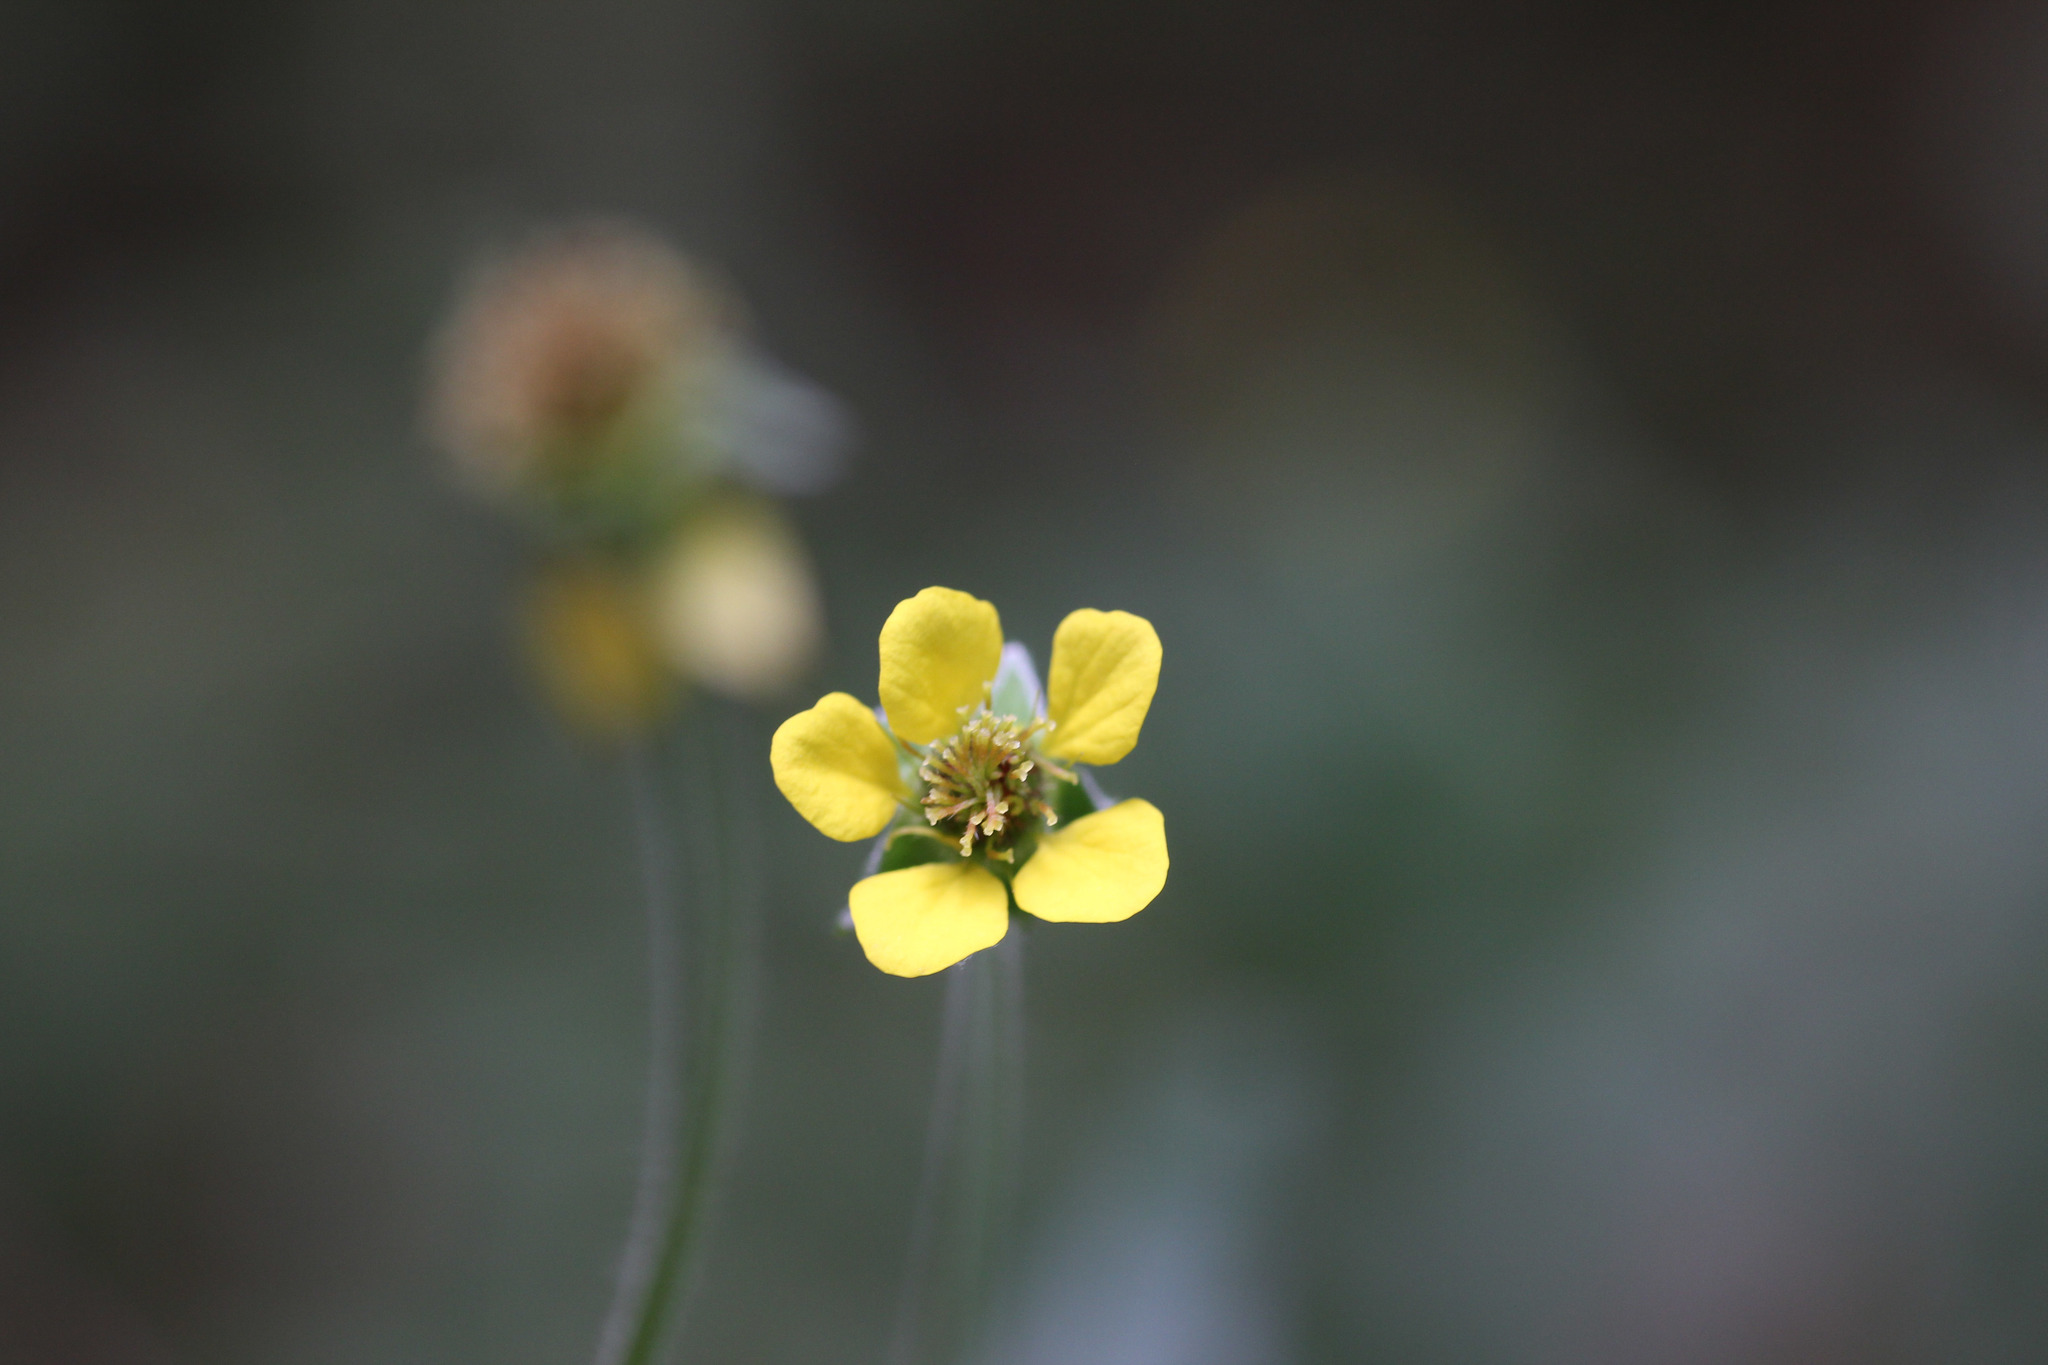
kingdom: Plantae
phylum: Tracheophyta
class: Magnoliopsida
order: Rosales
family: Rosaceae
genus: Geum
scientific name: Geum urbanum
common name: Wood avens
